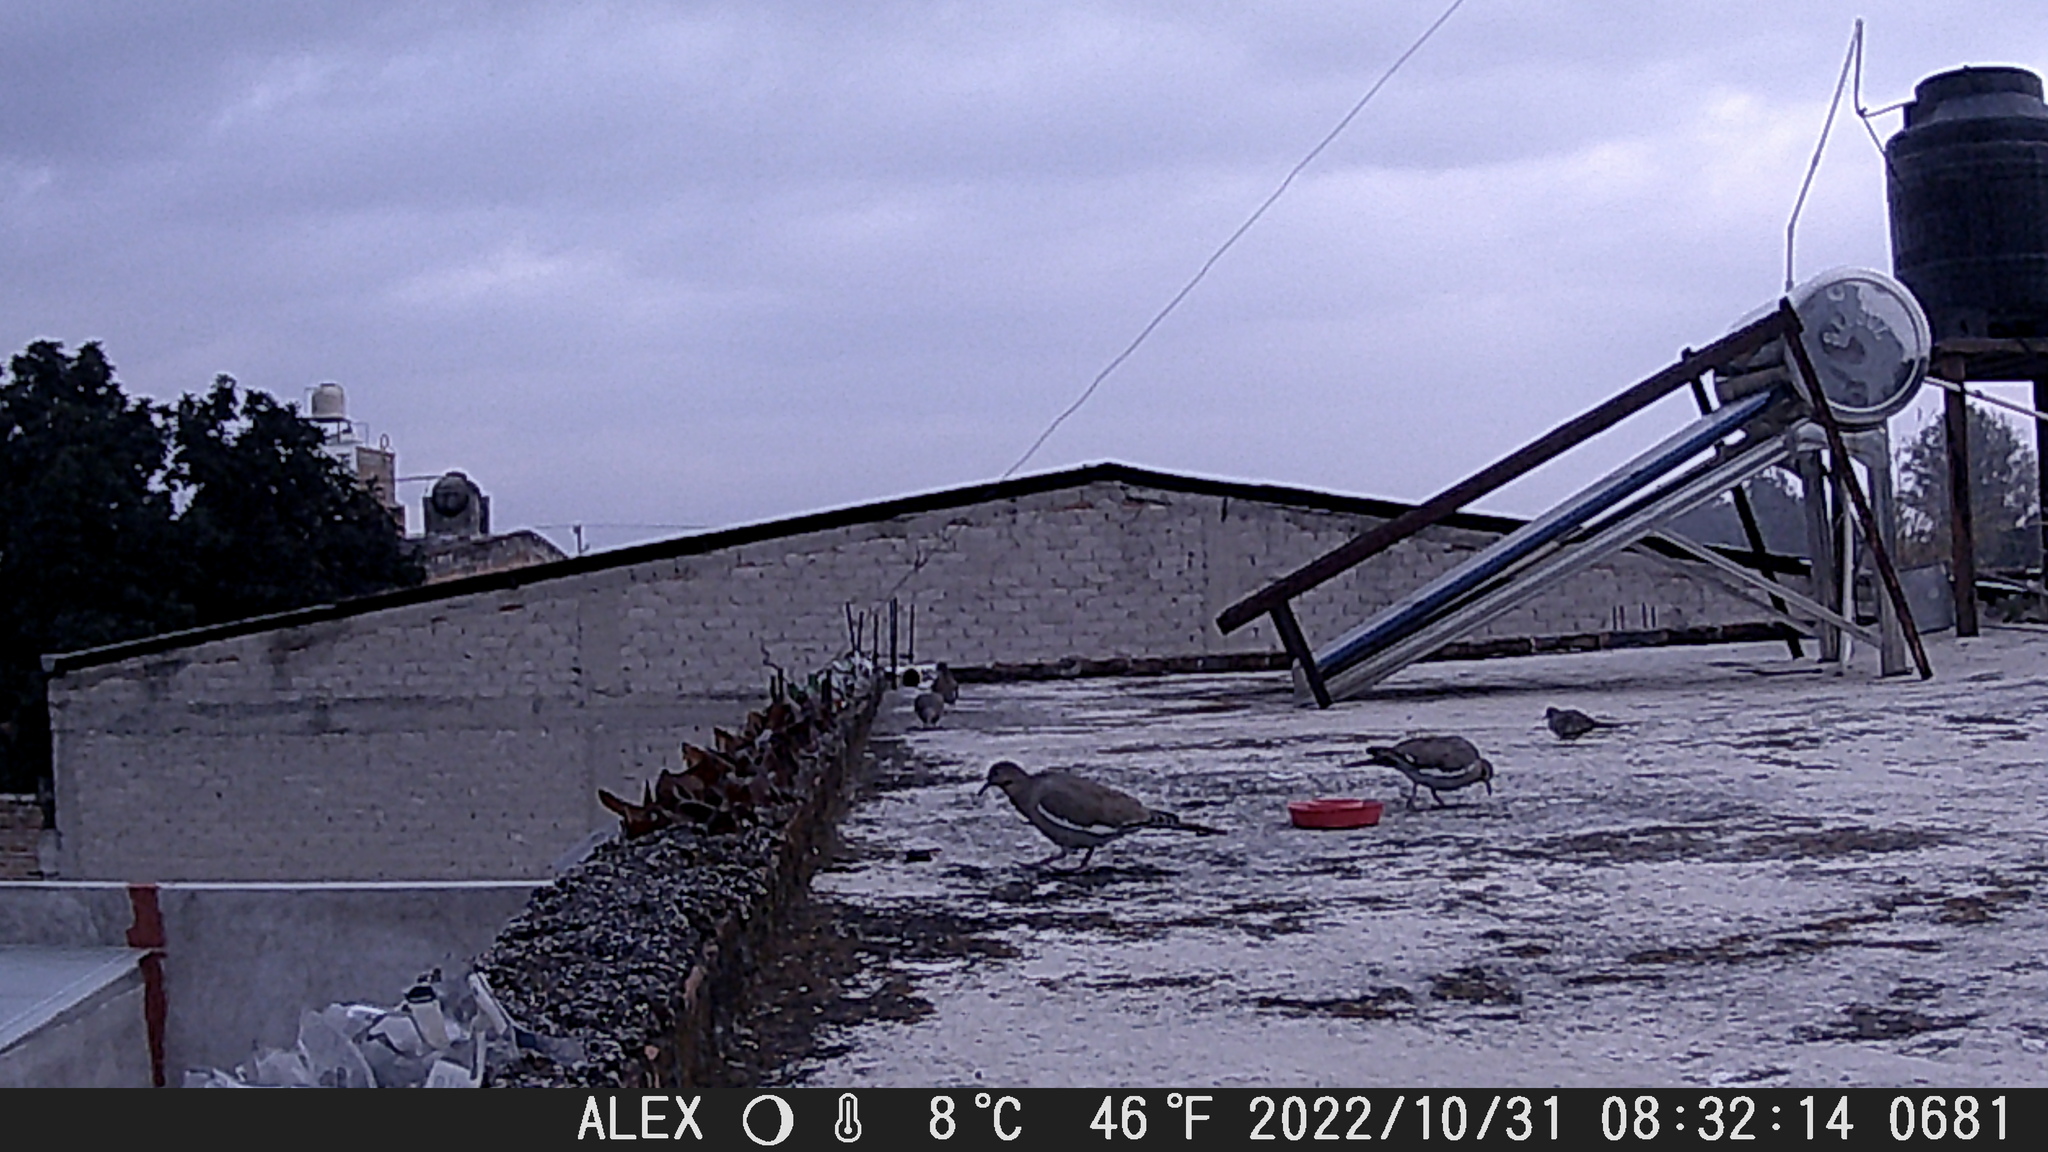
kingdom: Animalia
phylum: Chordata
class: Aves
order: Columbiformes
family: Columbidae
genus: Zenaida
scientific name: Zenaida asiatica
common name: White-winged dove
